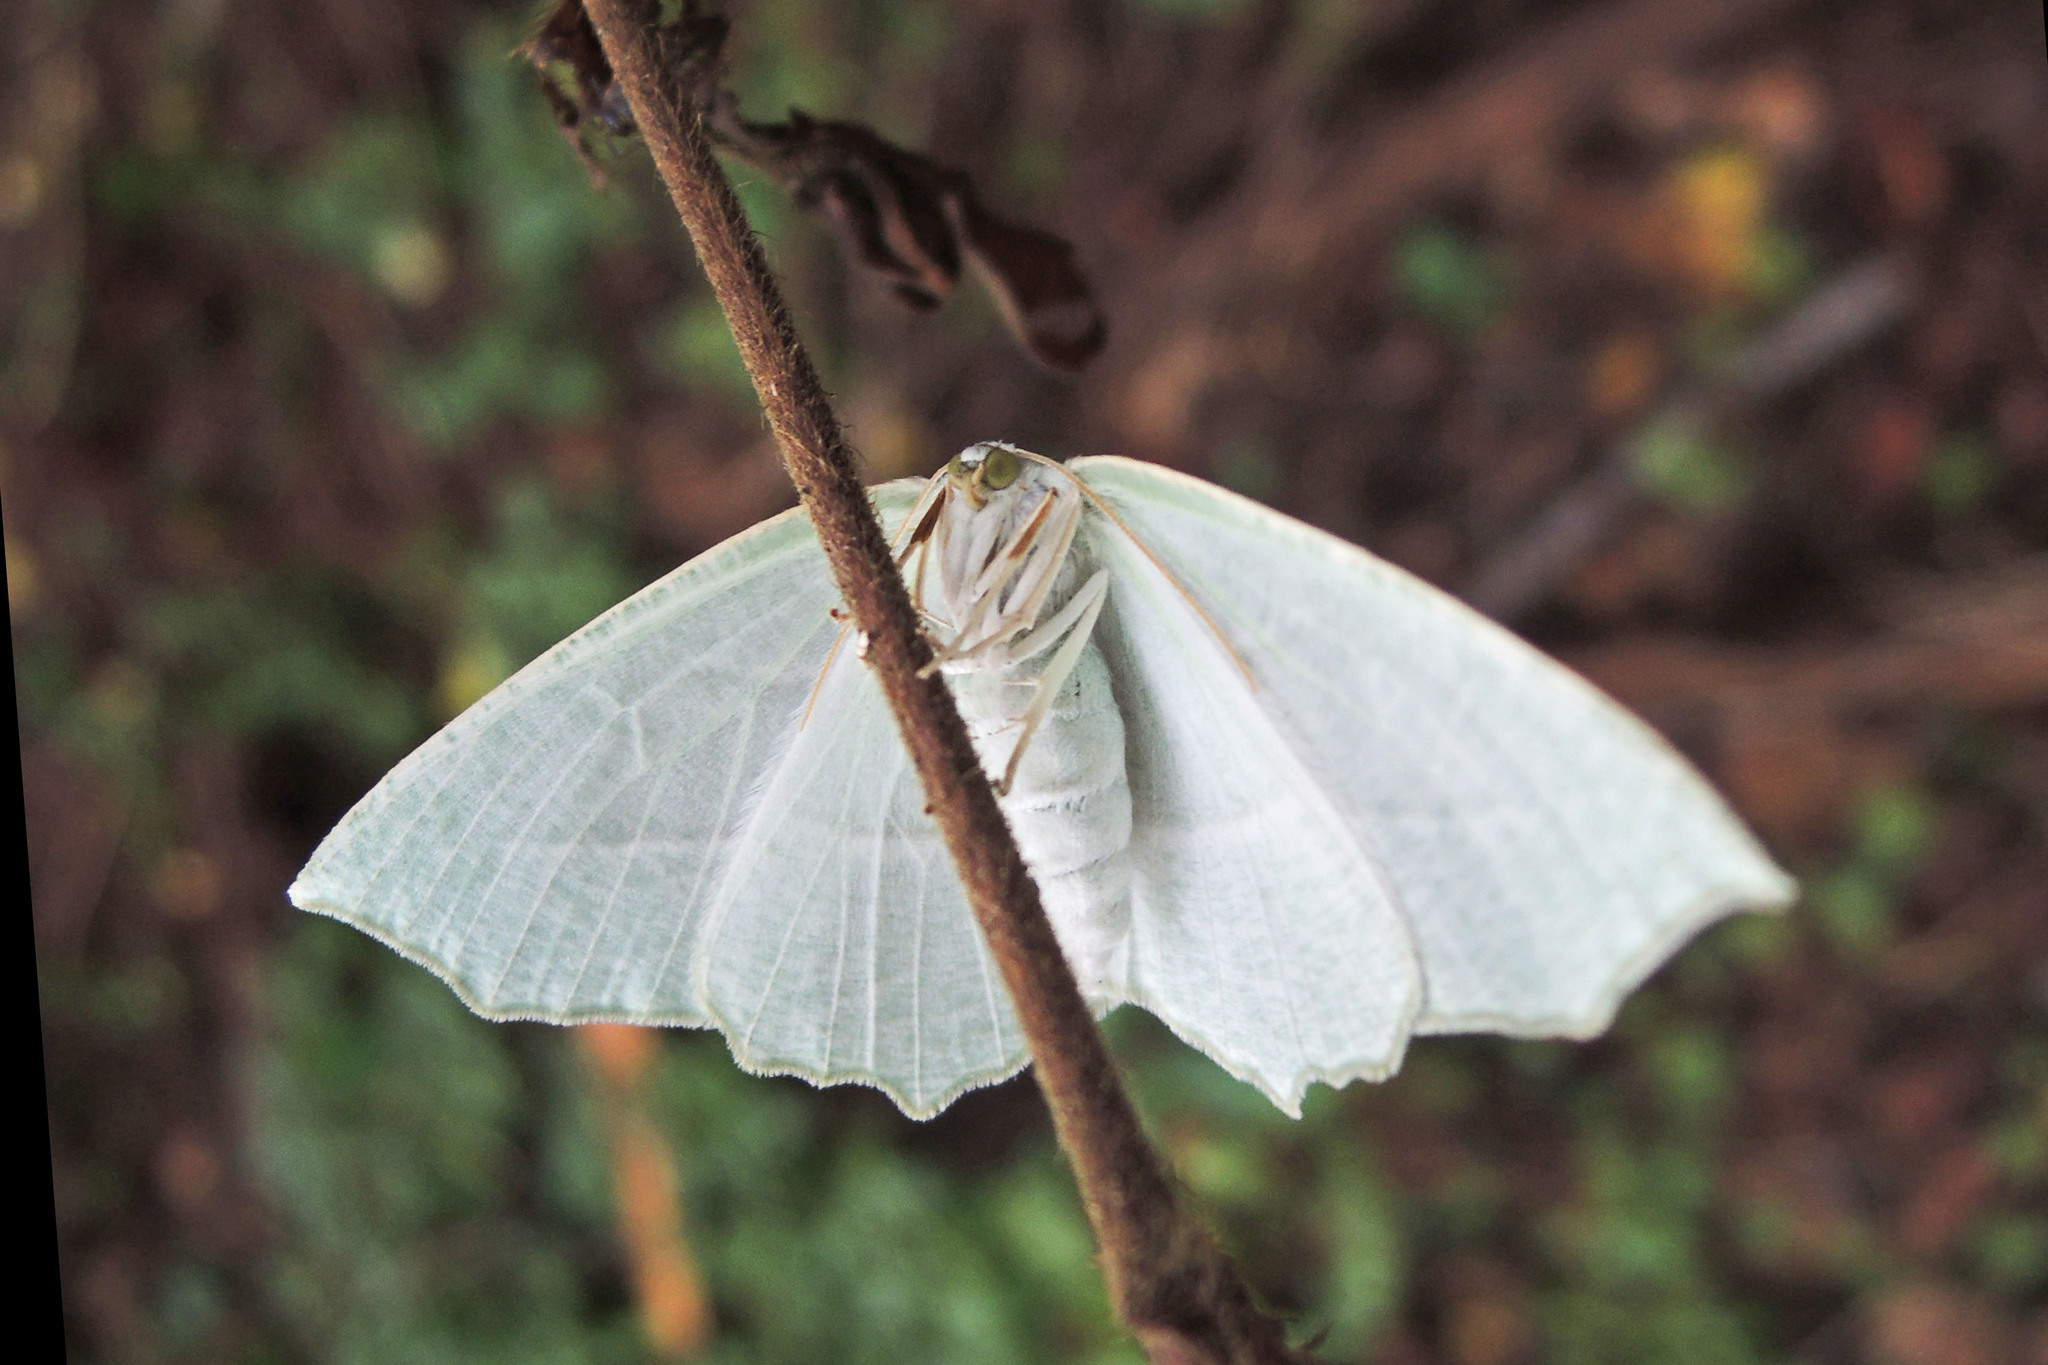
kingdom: Animalia
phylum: Arthropoda
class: Insecta
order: Lepidoptera
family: Geometridae
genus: Campaea
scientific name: Campaea perlata
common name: Fringed looper
